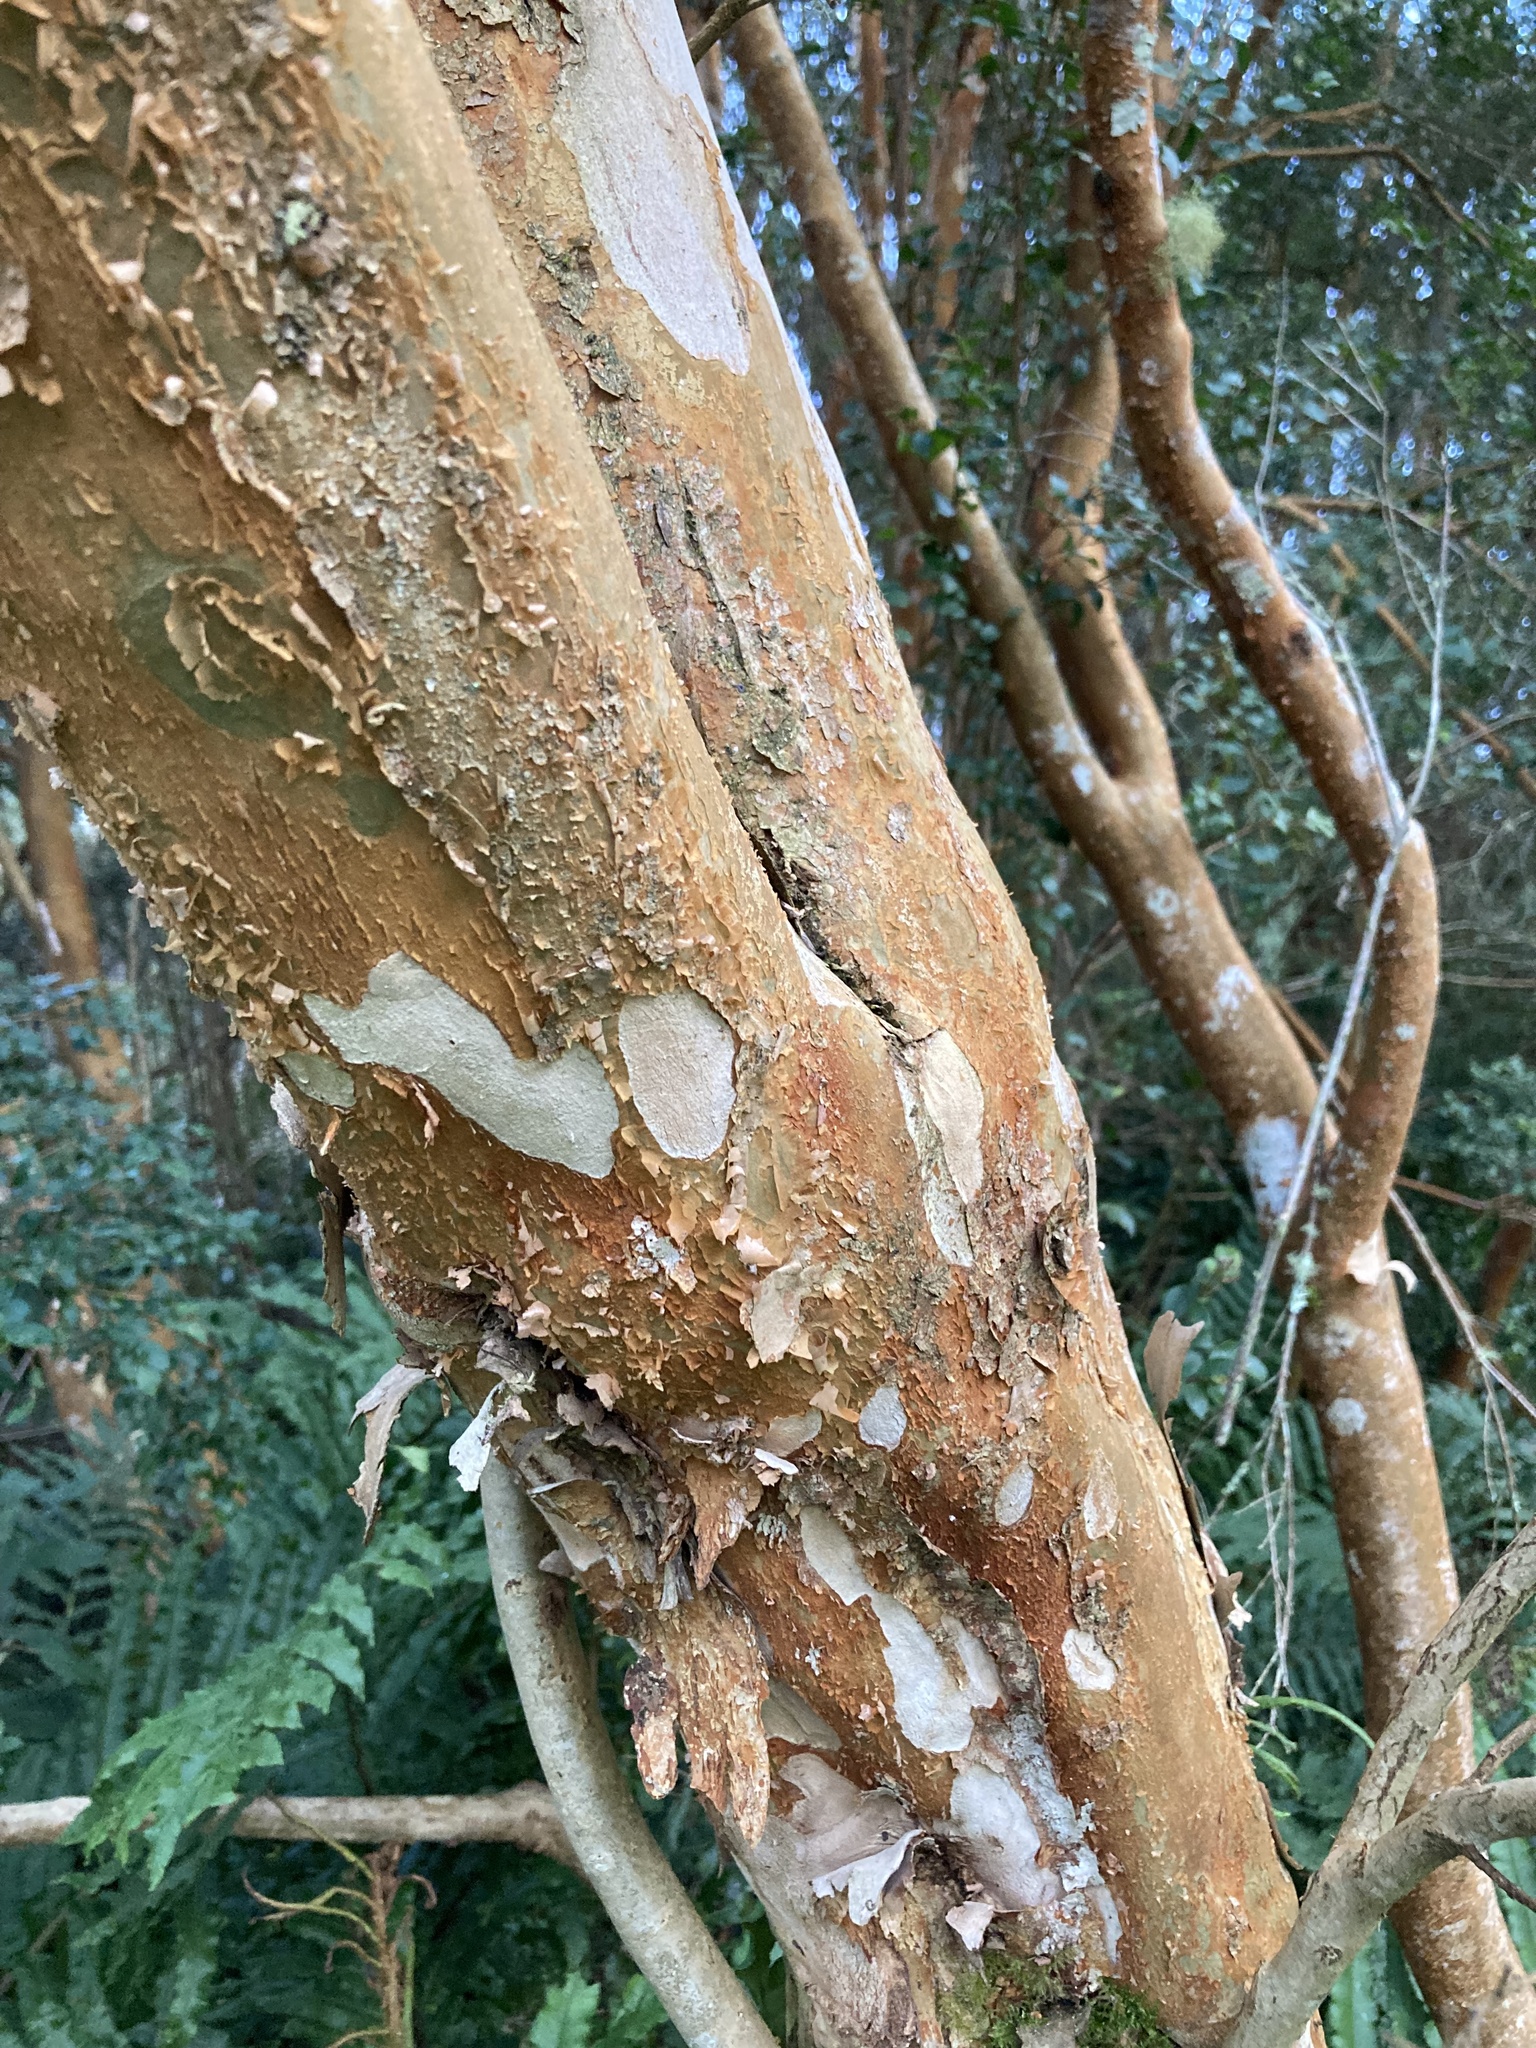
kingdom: Plantae
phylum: Tracheophyta
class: Magnoliopsida
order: Myrtales
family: Myrtaceae
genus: Luma
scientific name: Luma apiculata
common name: Chilean myrtle
